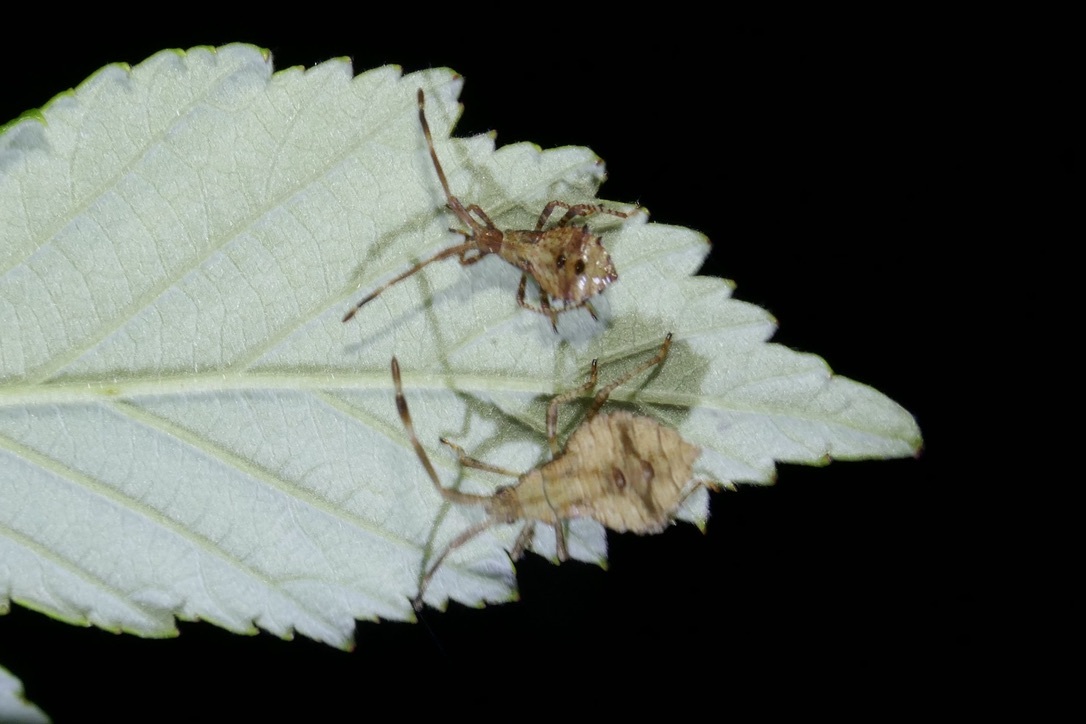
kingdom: Animalia
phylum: Arthropoda
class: Insecta
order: Hemiptera
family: Coreidae
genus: Coreus
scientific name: Coreus marginatus
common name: Dock bug
